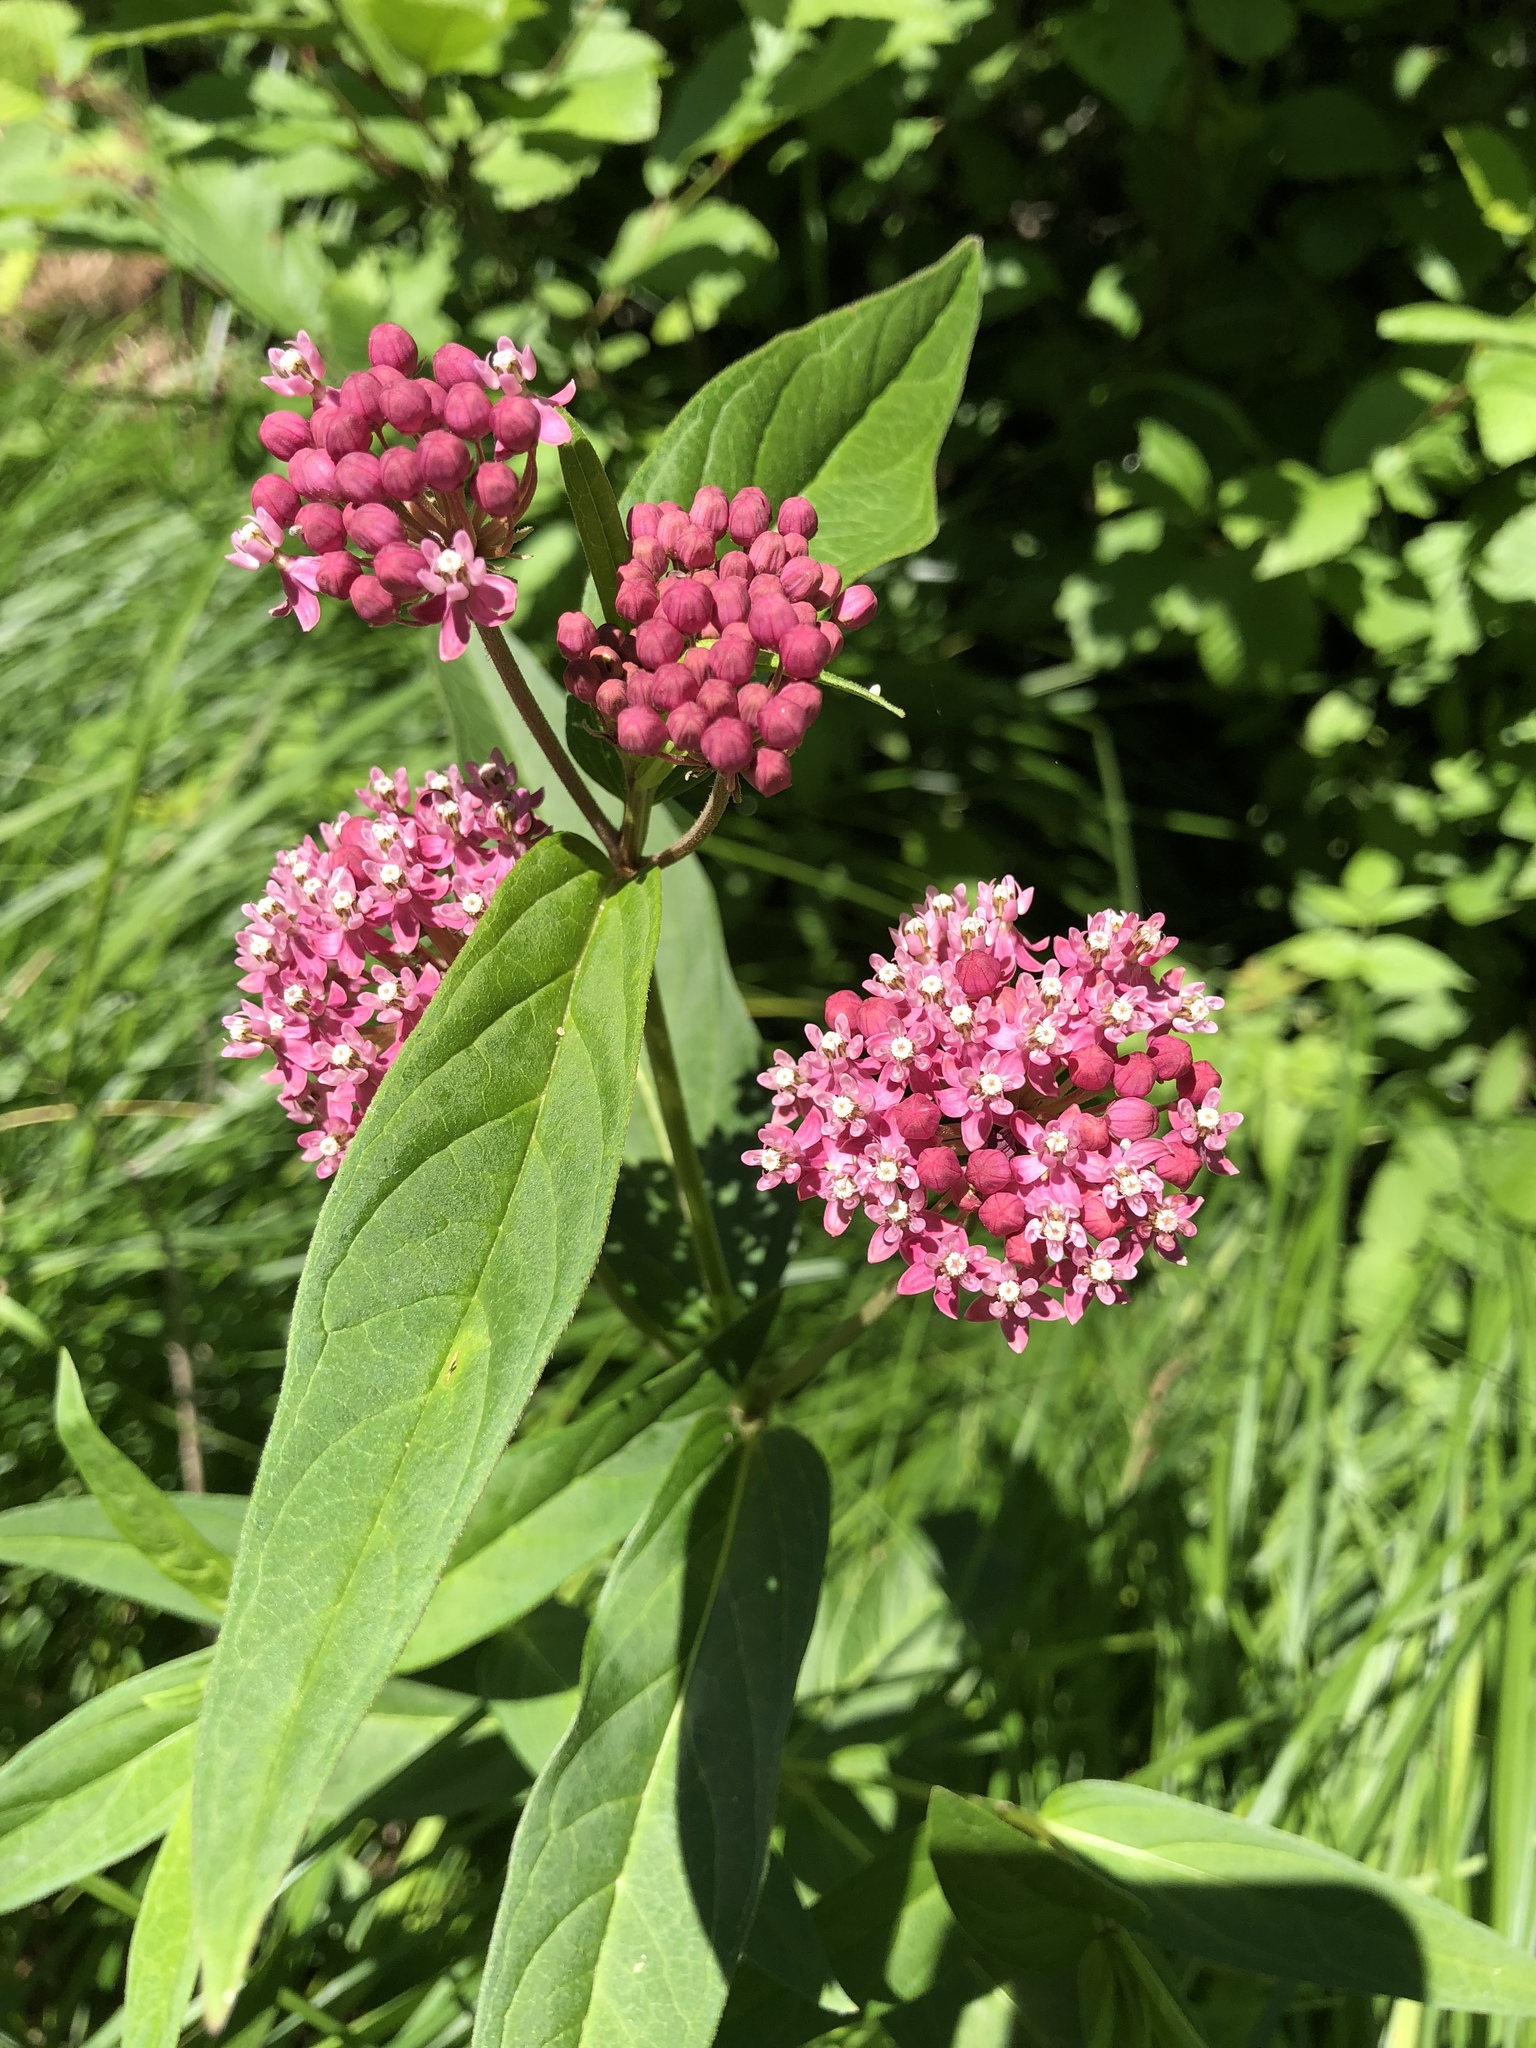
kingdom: Plantae
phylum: Tracheophyta
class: Magnoliopsida
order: Gentianales
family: Apocynaceae
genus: Asclepias
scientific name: Asclepias incarnata
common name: Swamp milkweed
